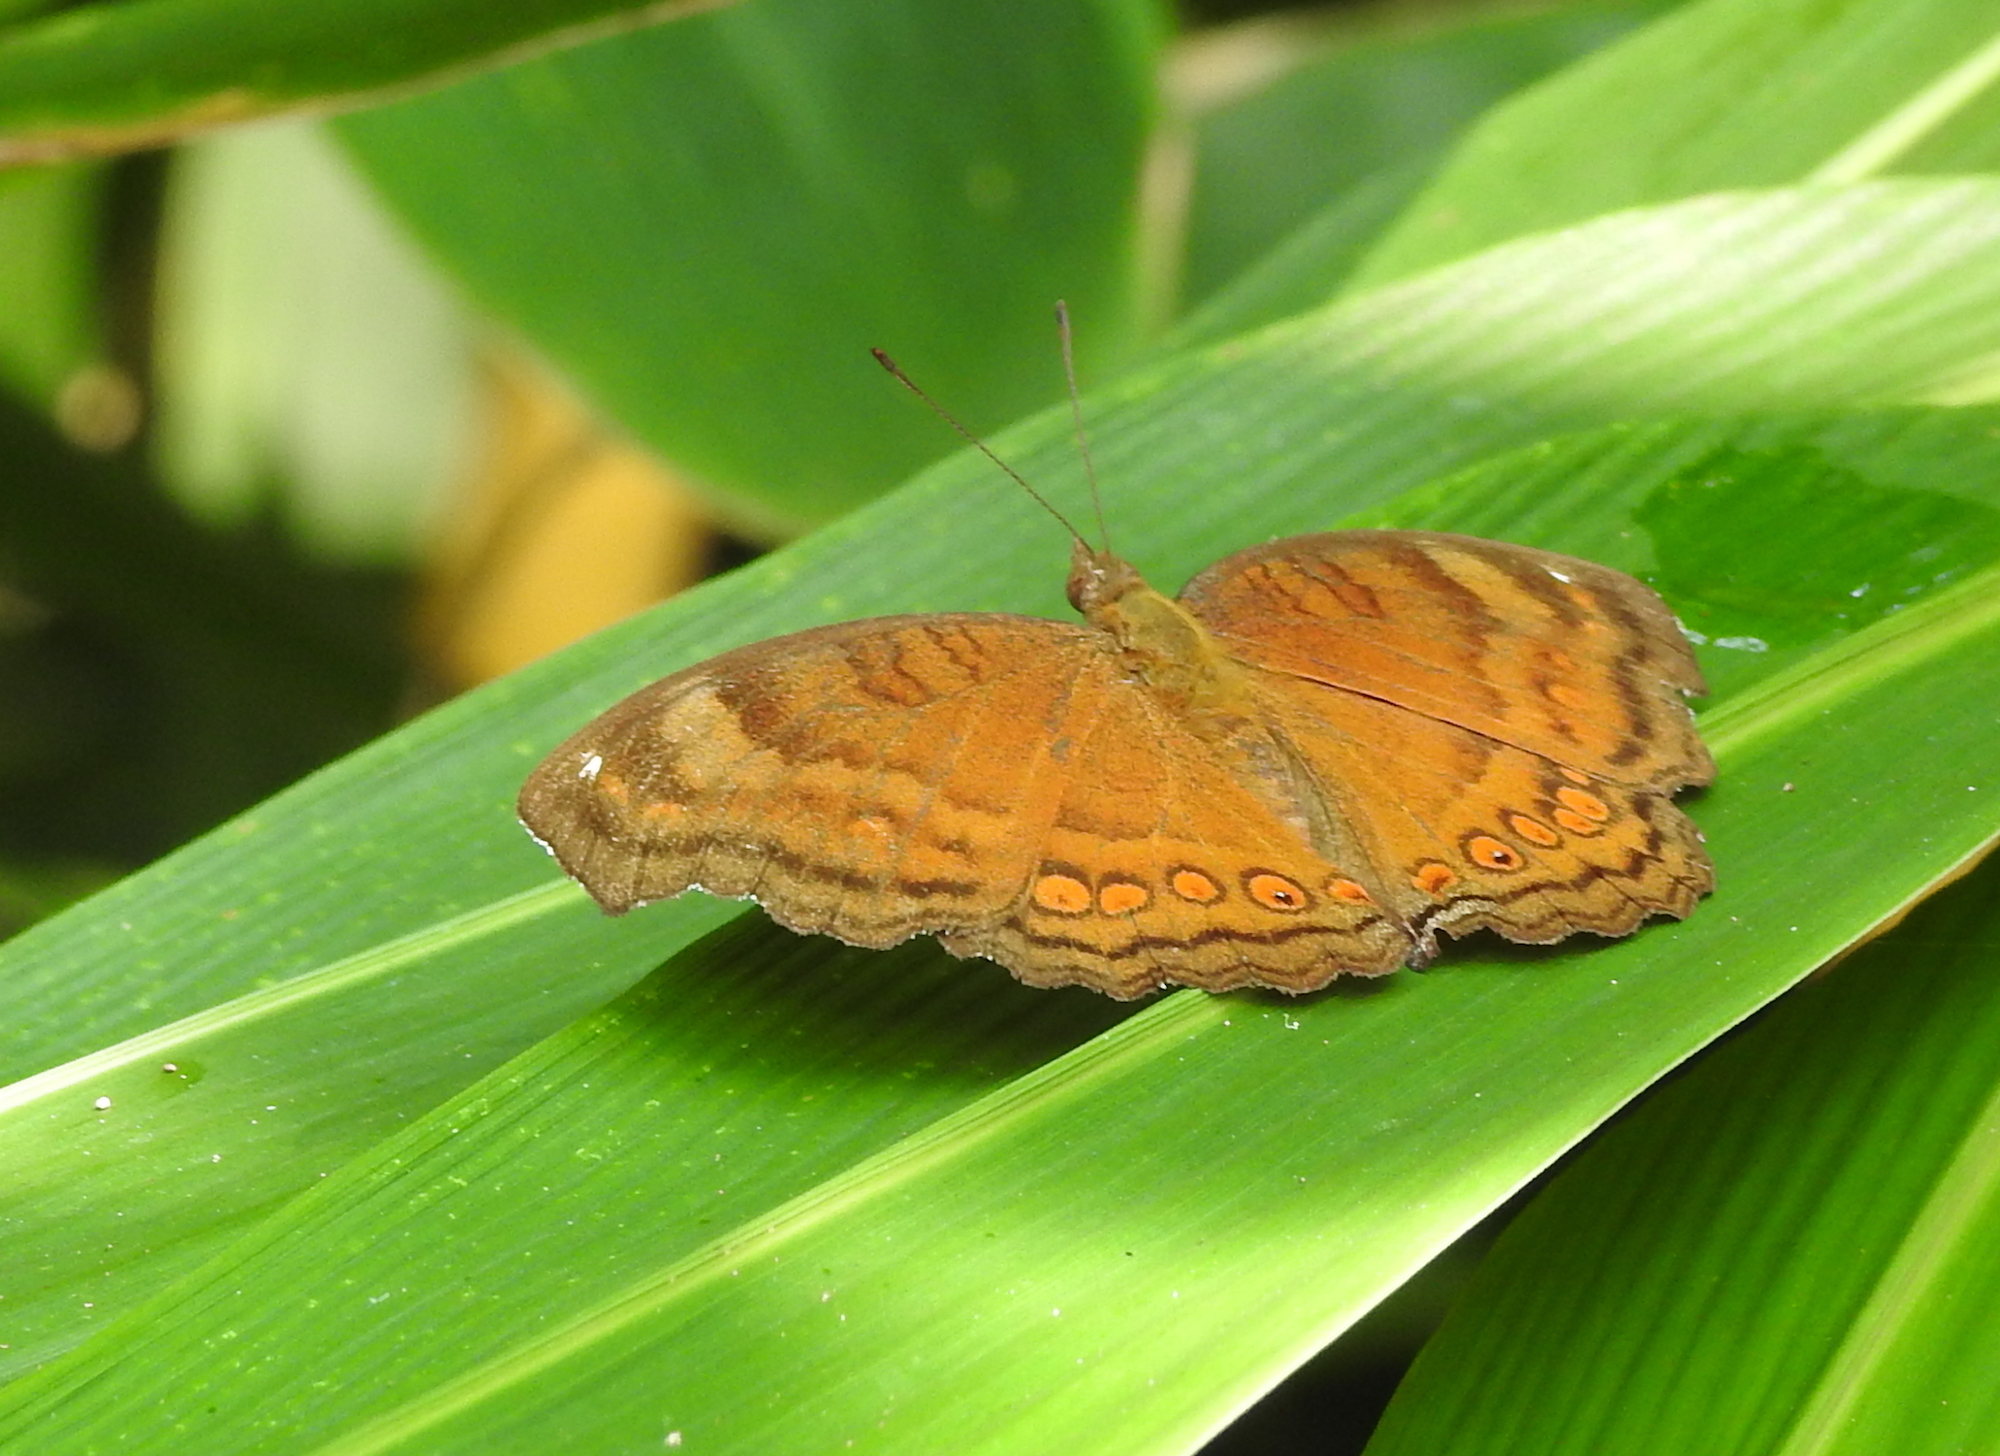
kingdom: Animalia
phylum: Arthropoda
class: Insecta
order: Lepidoptera
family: Nymphalidae
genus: Junonia
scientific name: Junonia hedonia
